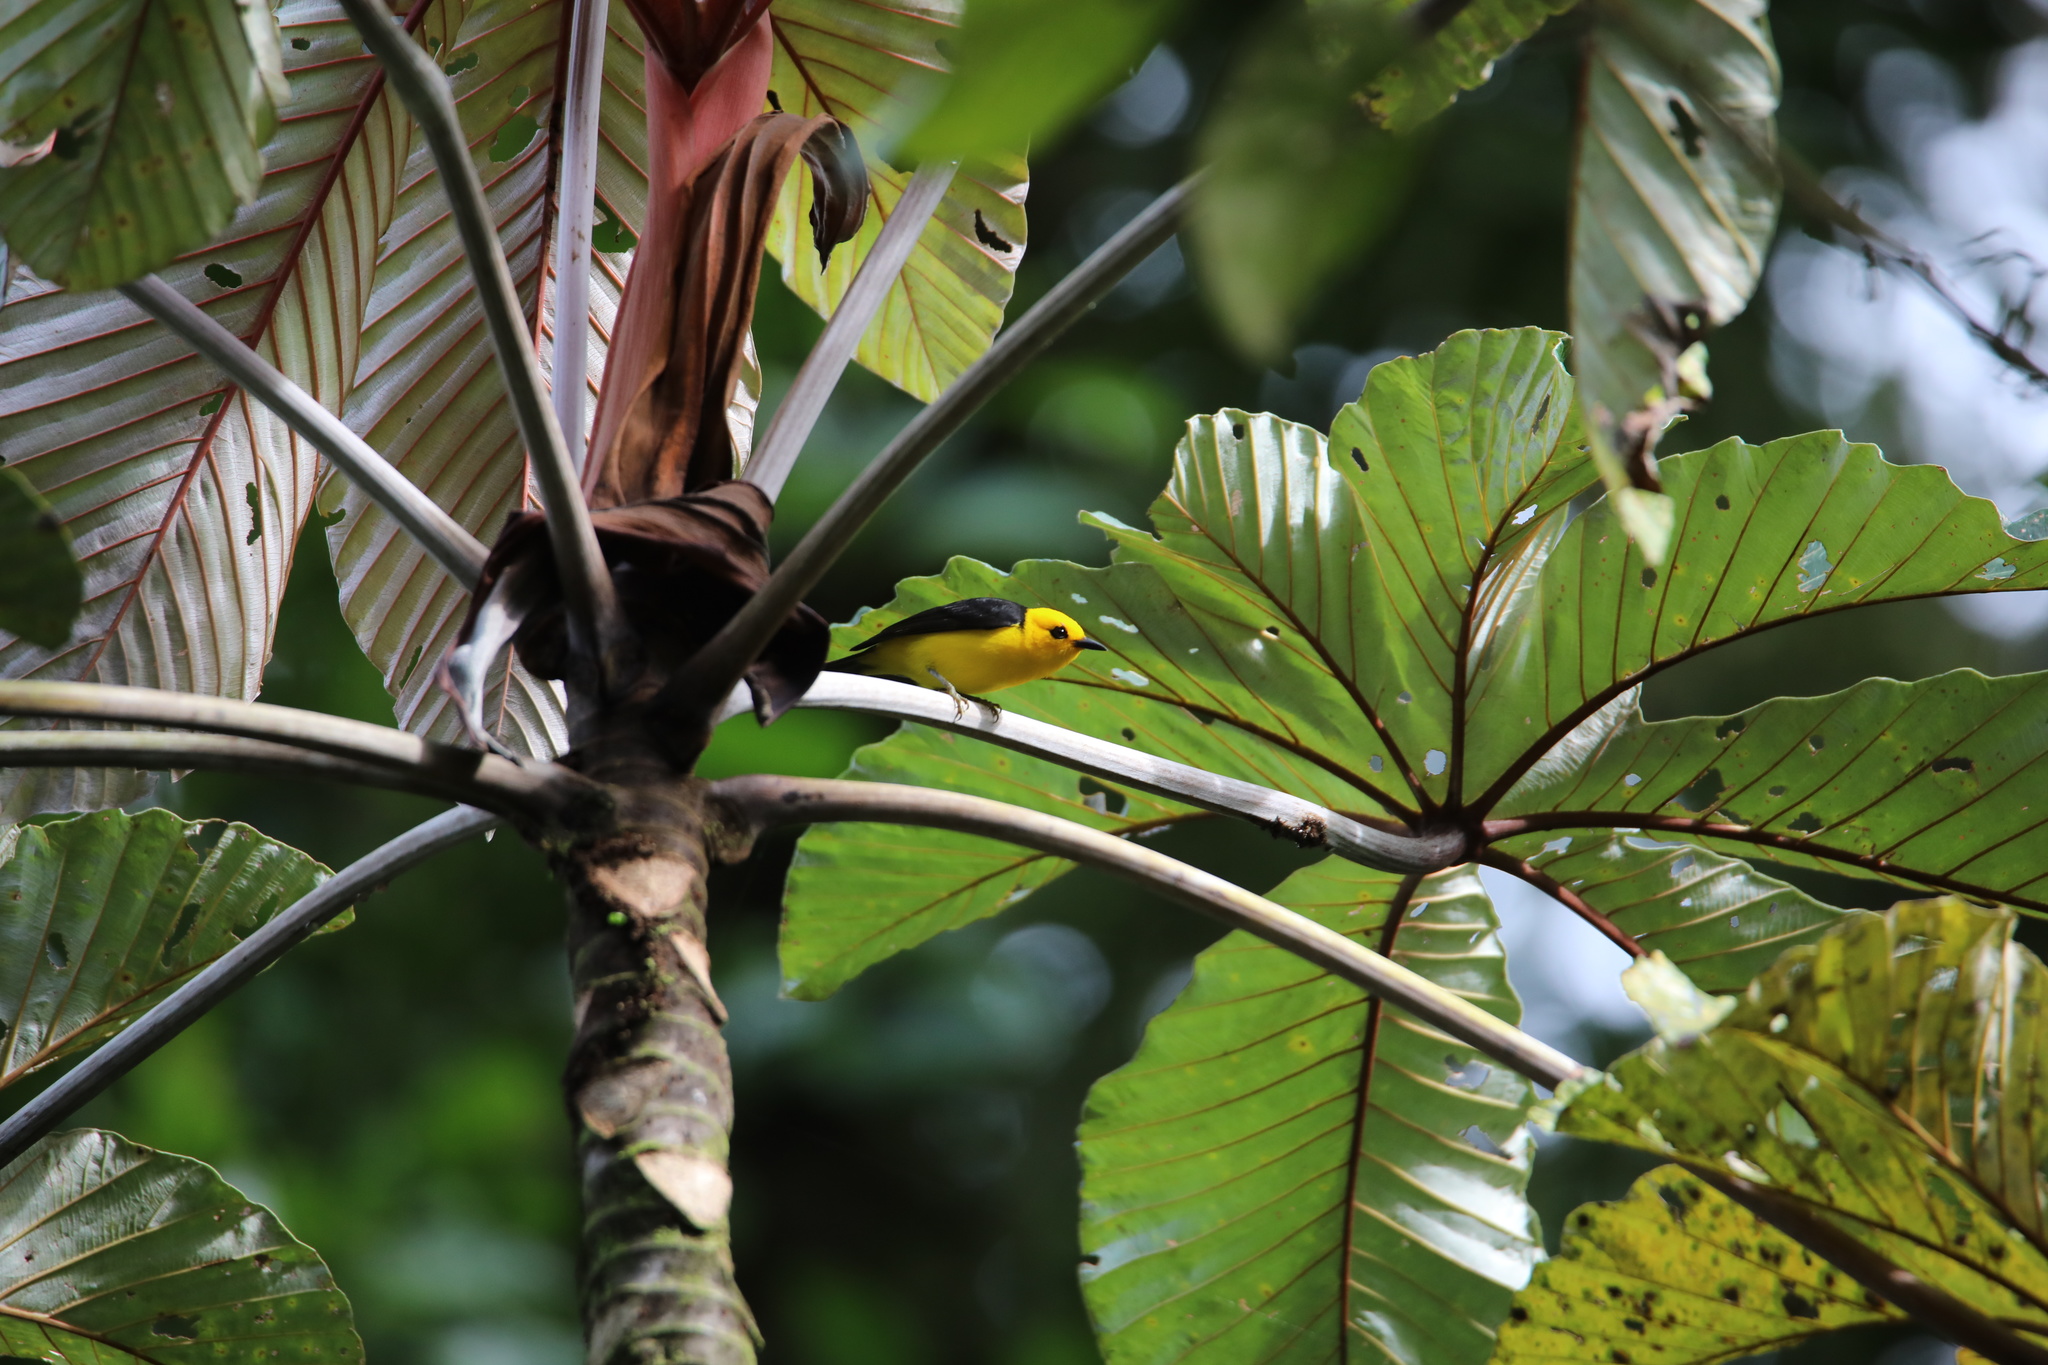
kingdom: Animalia
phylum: Chordata
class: Aves
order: Passeriformes
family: Thraupidae
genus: Chrysothlypis
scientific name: Chrysothlypis chrysomelas
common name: Black-and-yellow tanager
